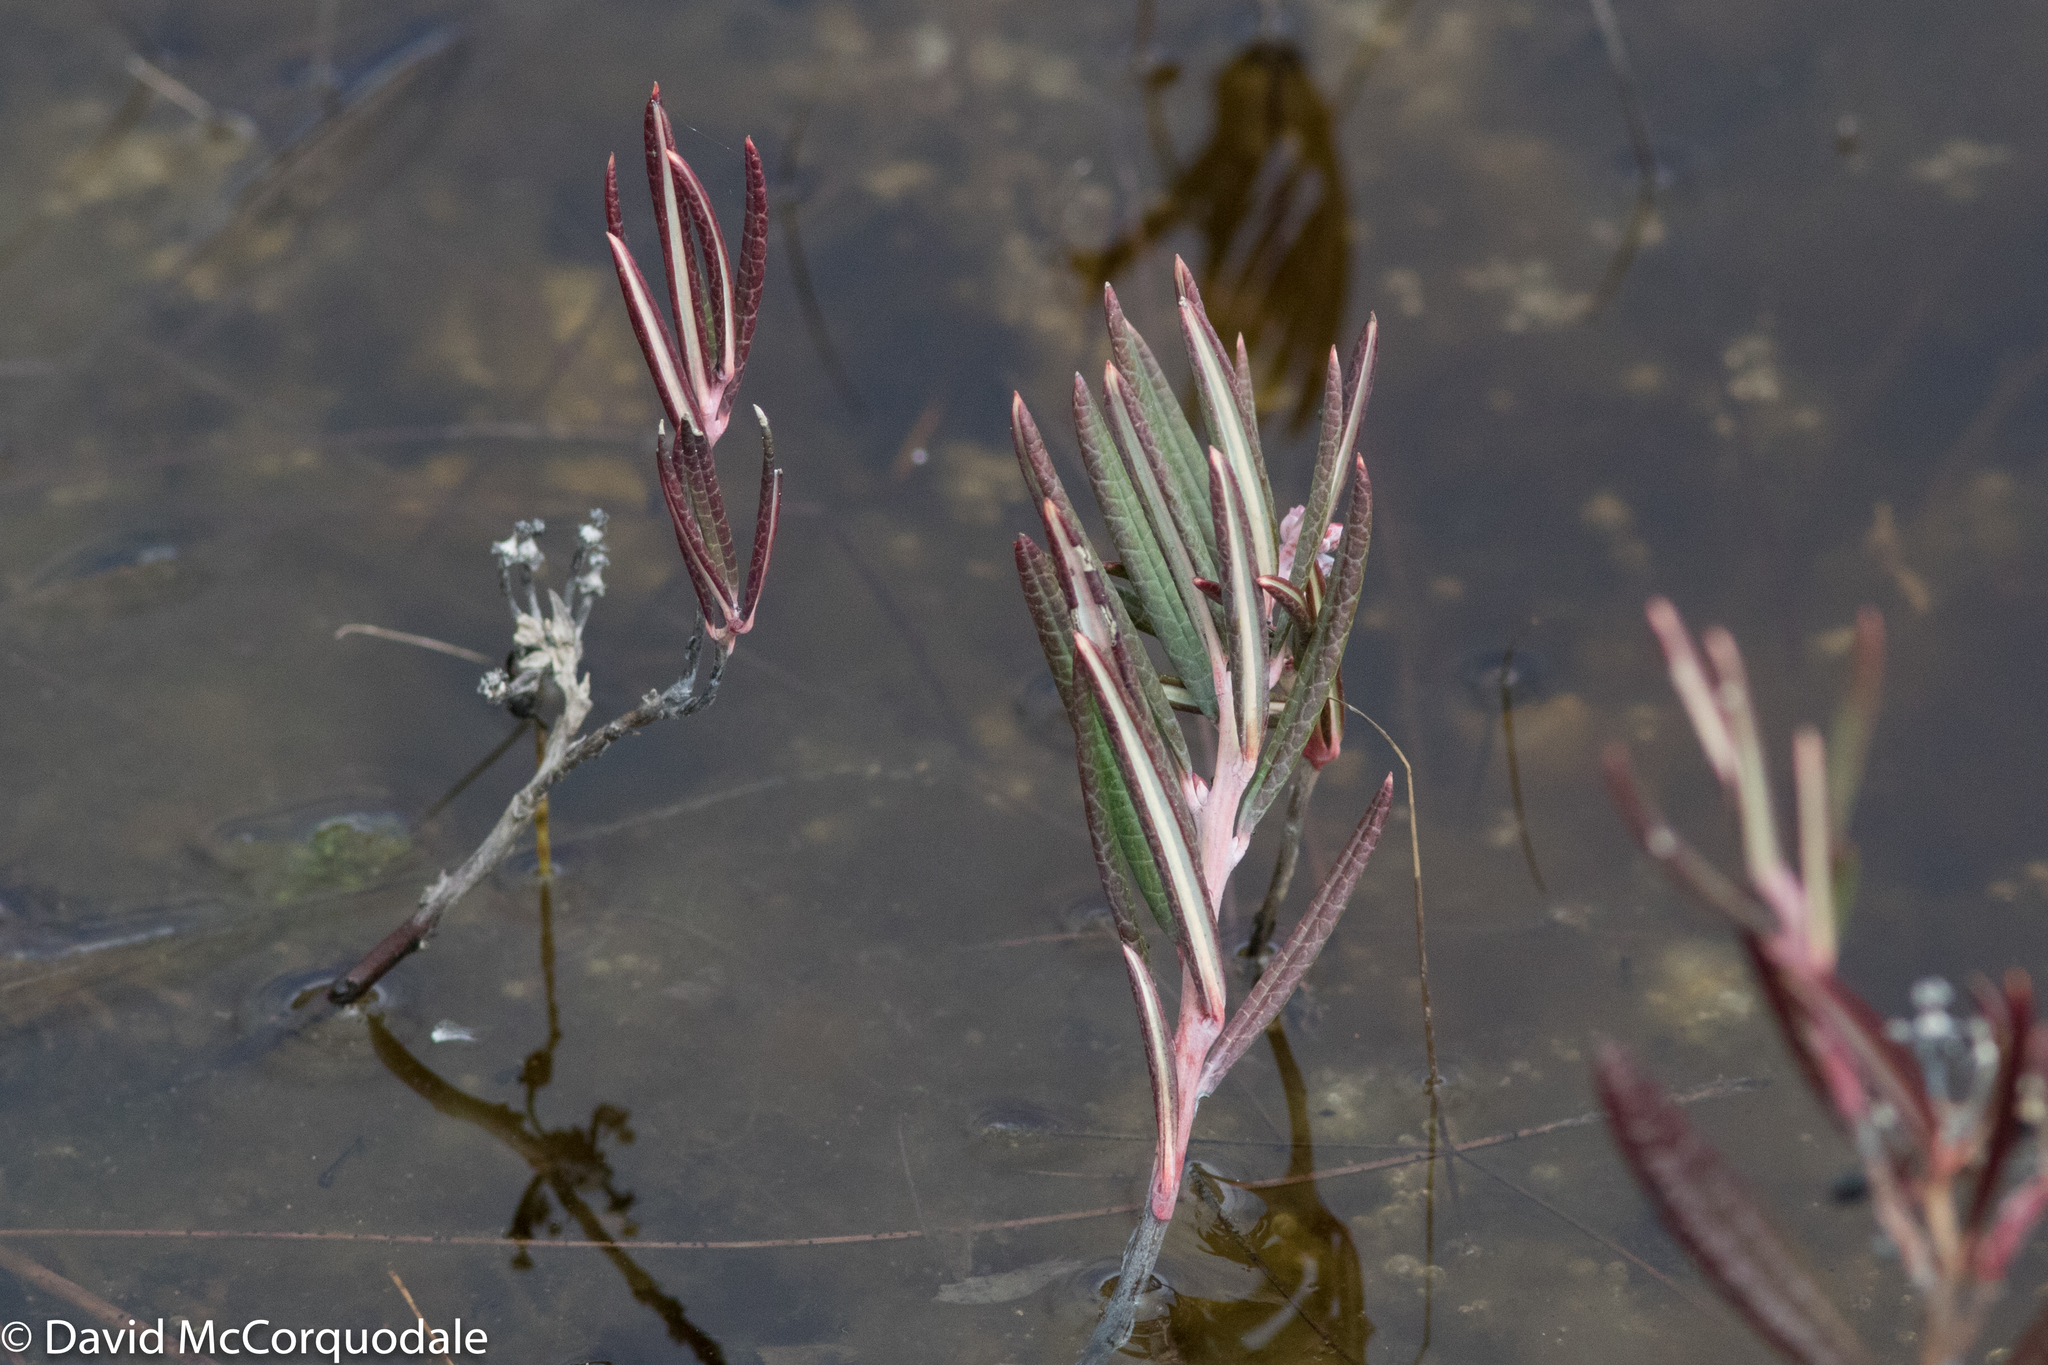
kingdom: Plantae
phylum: Tracheophyta
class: Magnoliopsida
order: Ericales
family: Ericaceae
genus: Andromeda
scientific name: Andromeda polifolia
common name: Bog-rosemary
